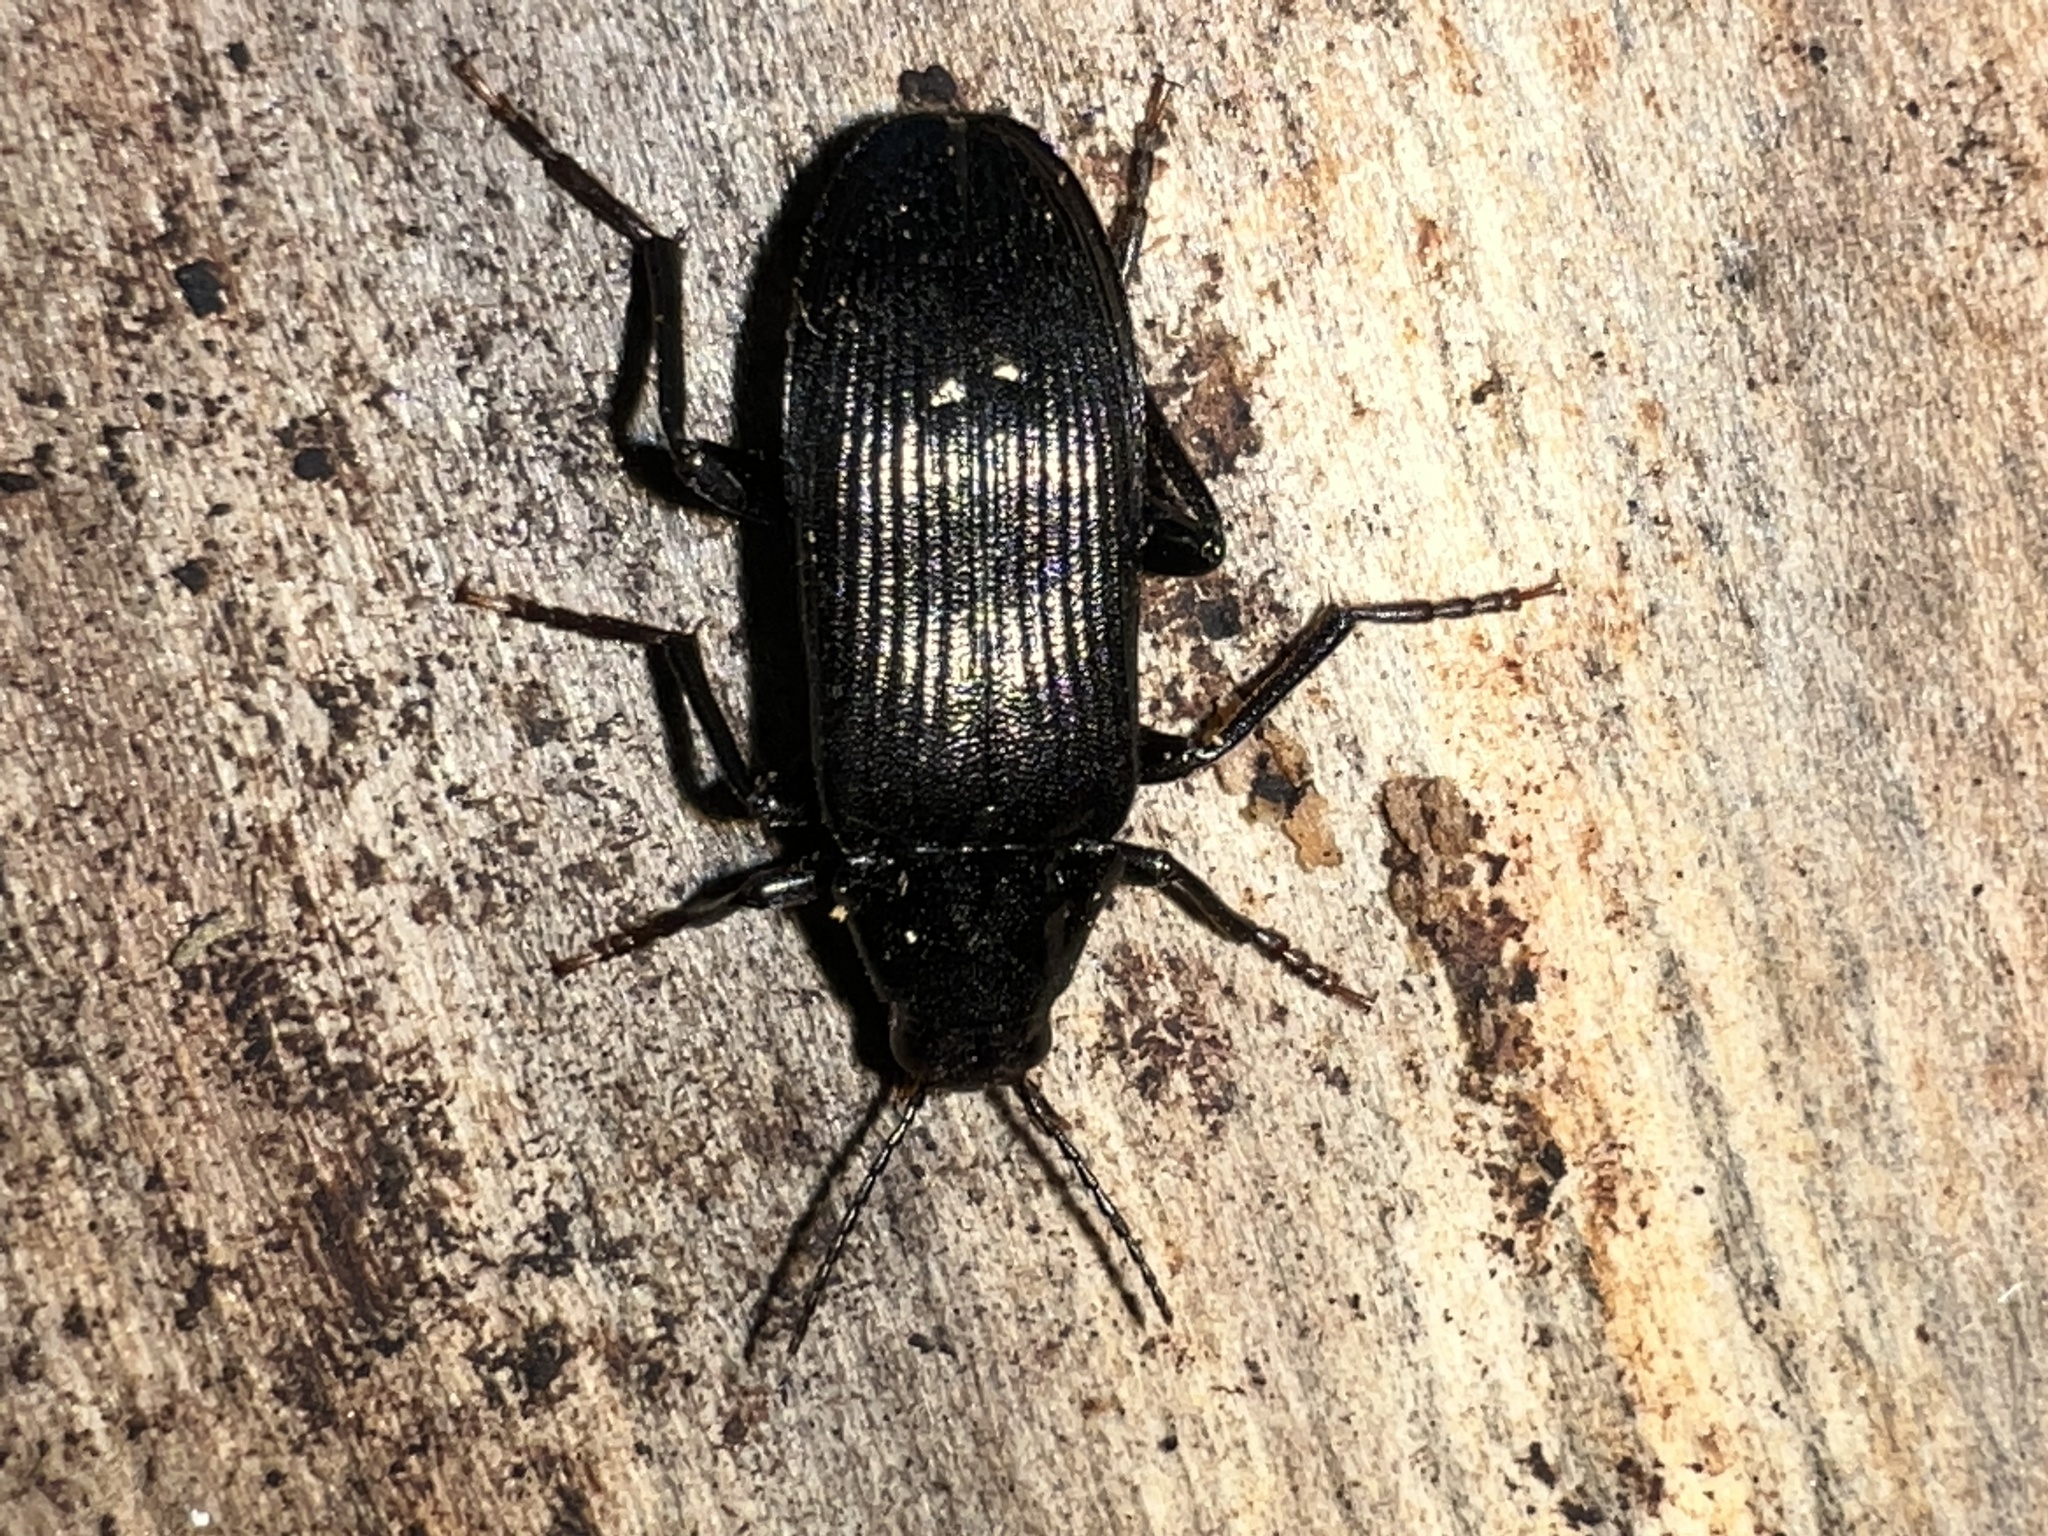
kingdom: Animalia
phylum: Arthropoda
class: Insecta
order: Coleoptera
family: Melandryidae
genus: Melandrya
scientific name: Melandrya striata
